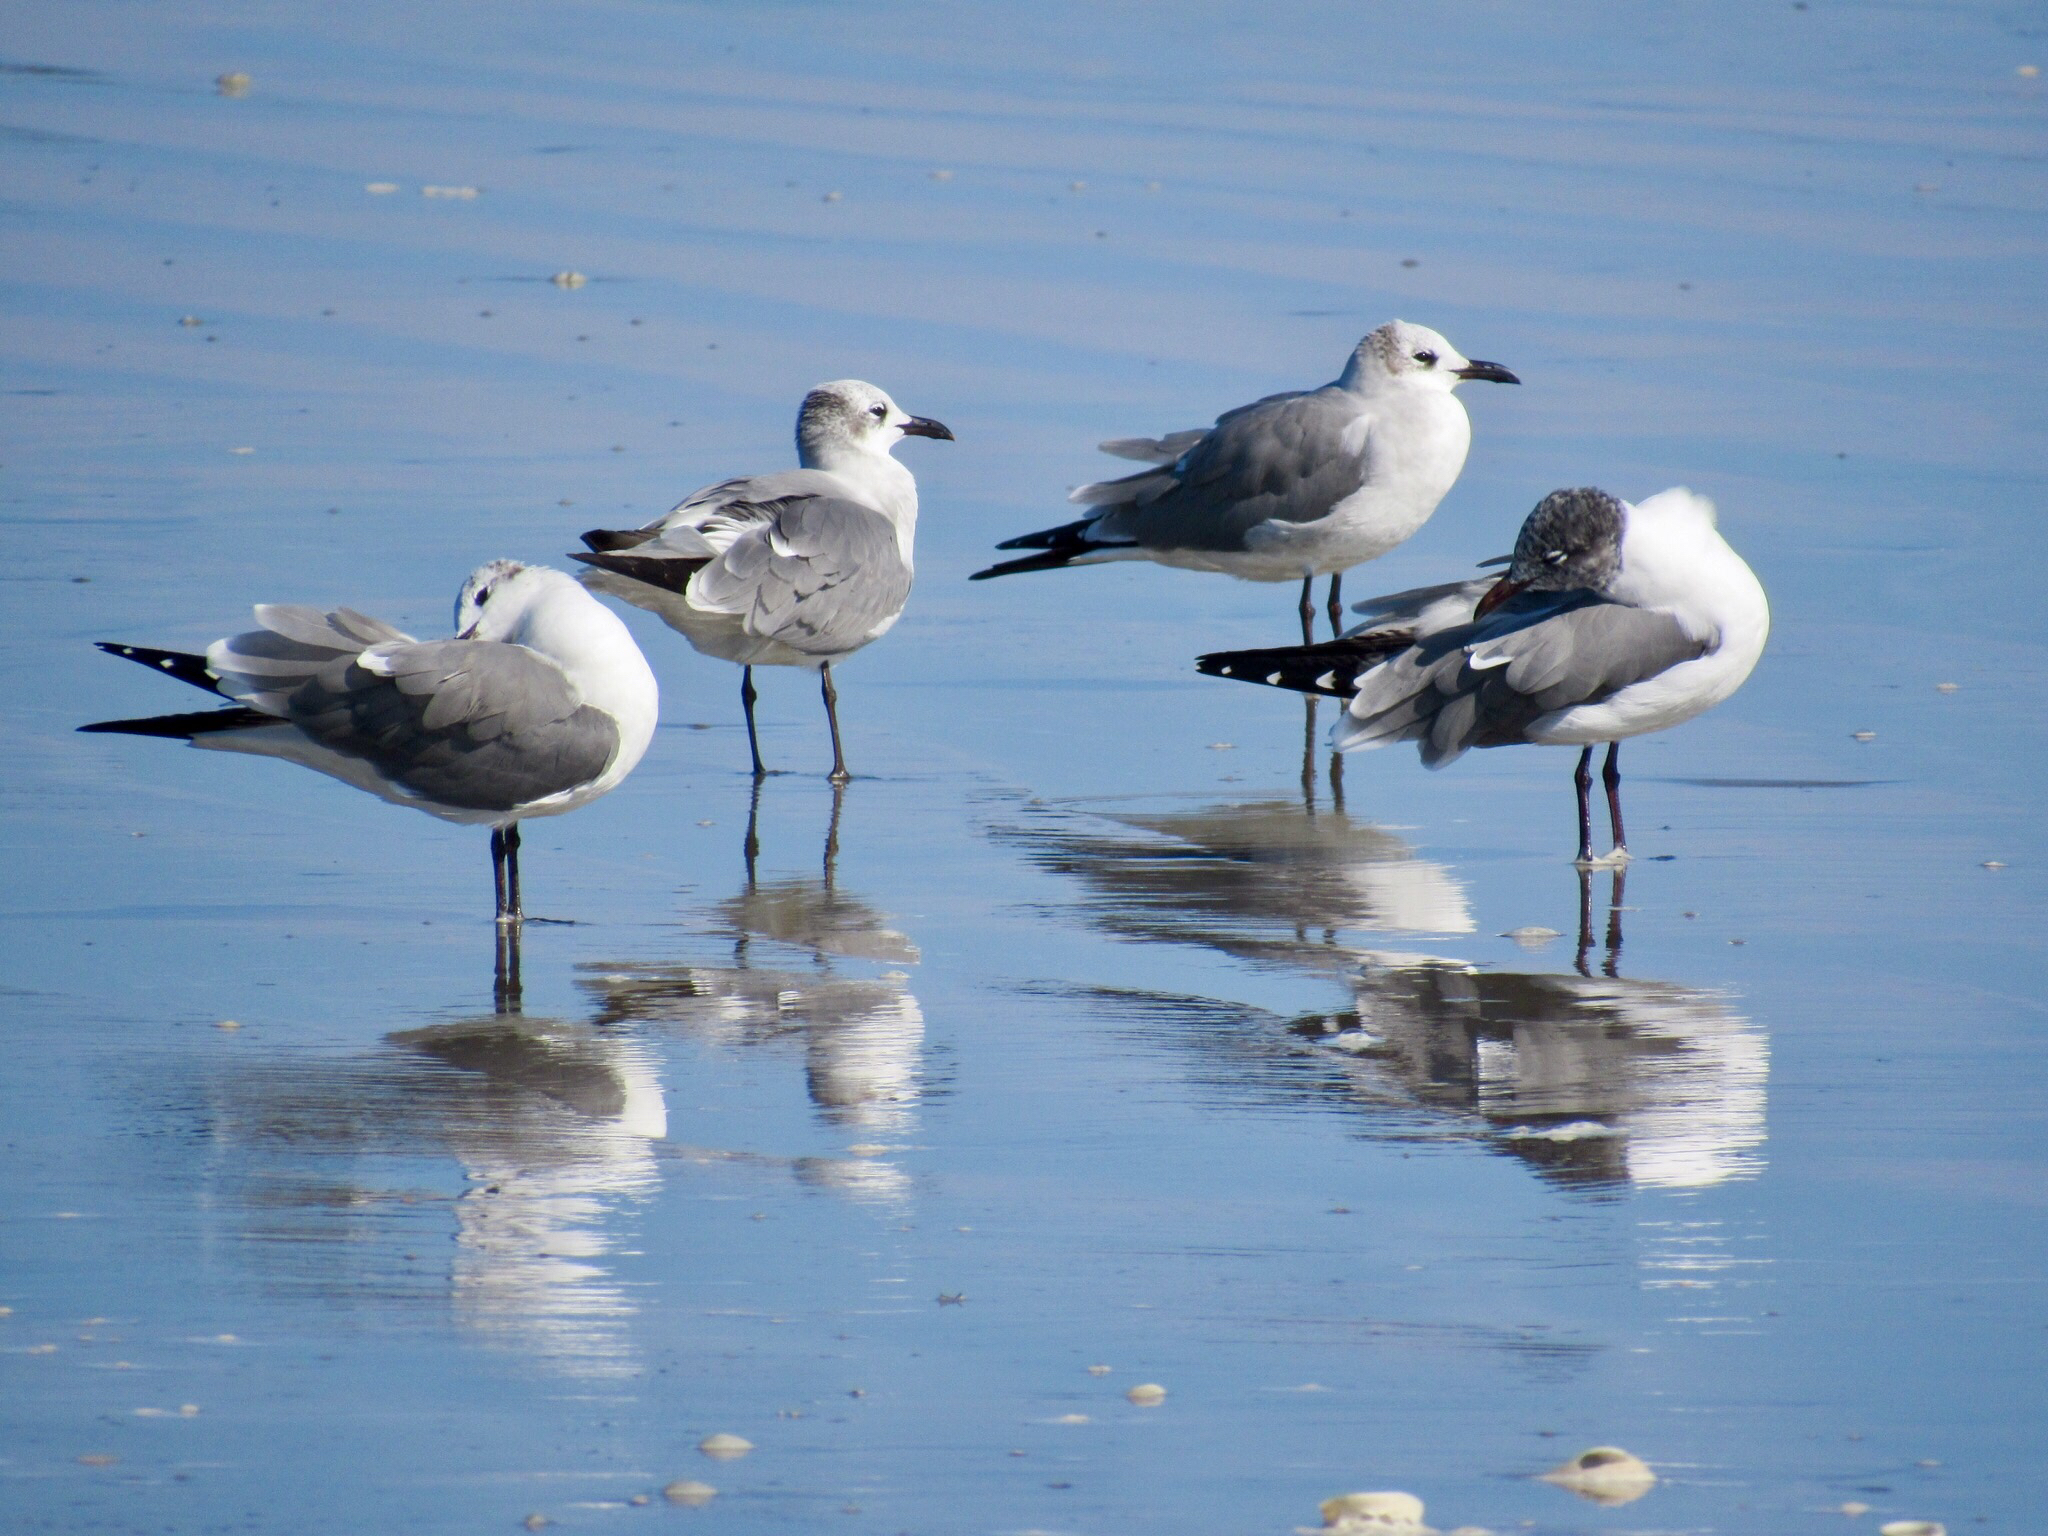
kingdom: Animalia
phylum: Chordata
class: Aves
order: Charadriiformes
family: Laridae
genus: Leucophaeus
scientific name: Leucophaeus atricilla
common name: Laughing gull
